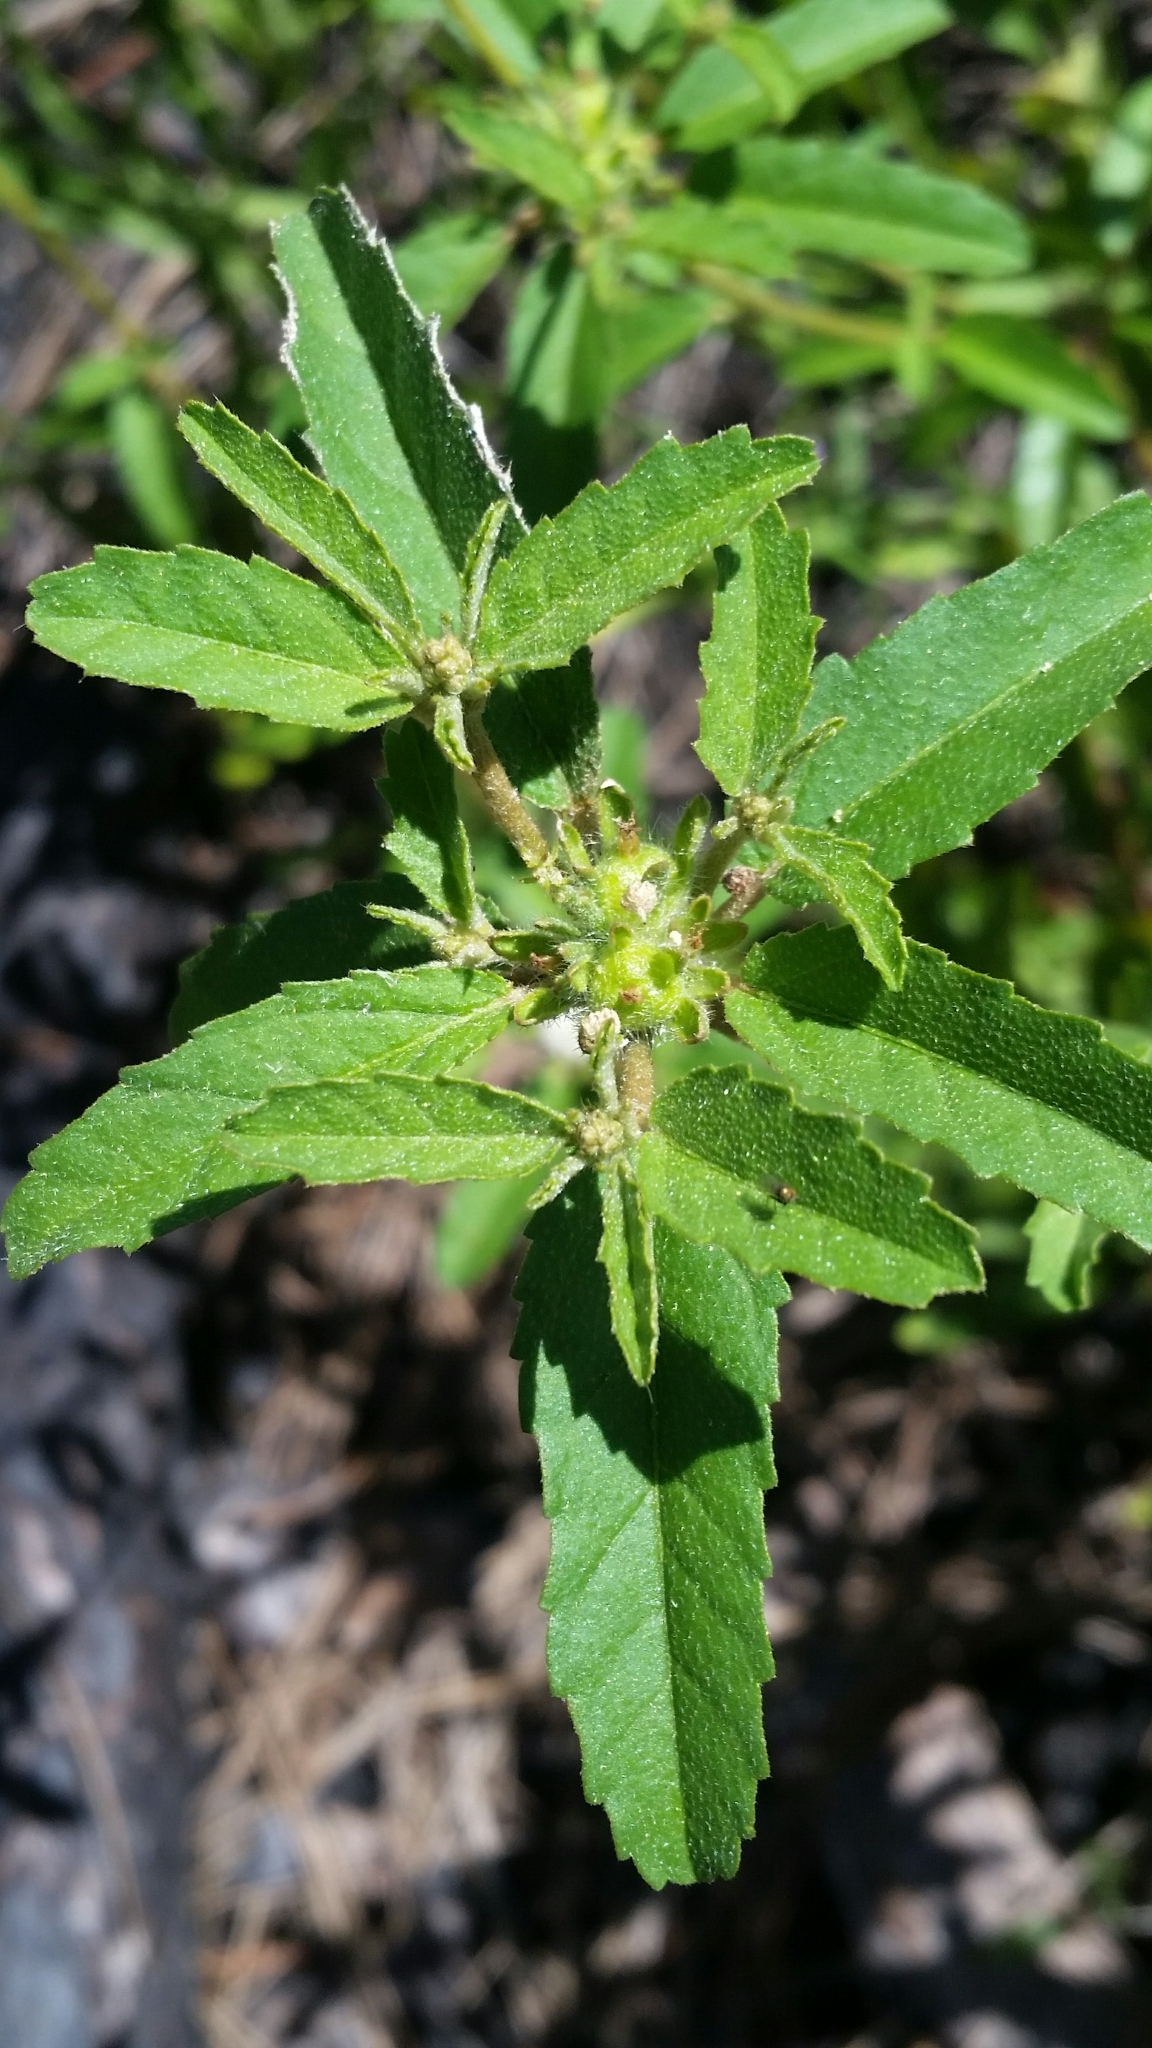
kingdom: Plantae
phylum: Tracheophyta
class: Magnoliopsida
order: Malpighiales
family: Euphorbiaceae
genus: Croton
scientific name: Croton glandulosus
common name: Tropic croton
